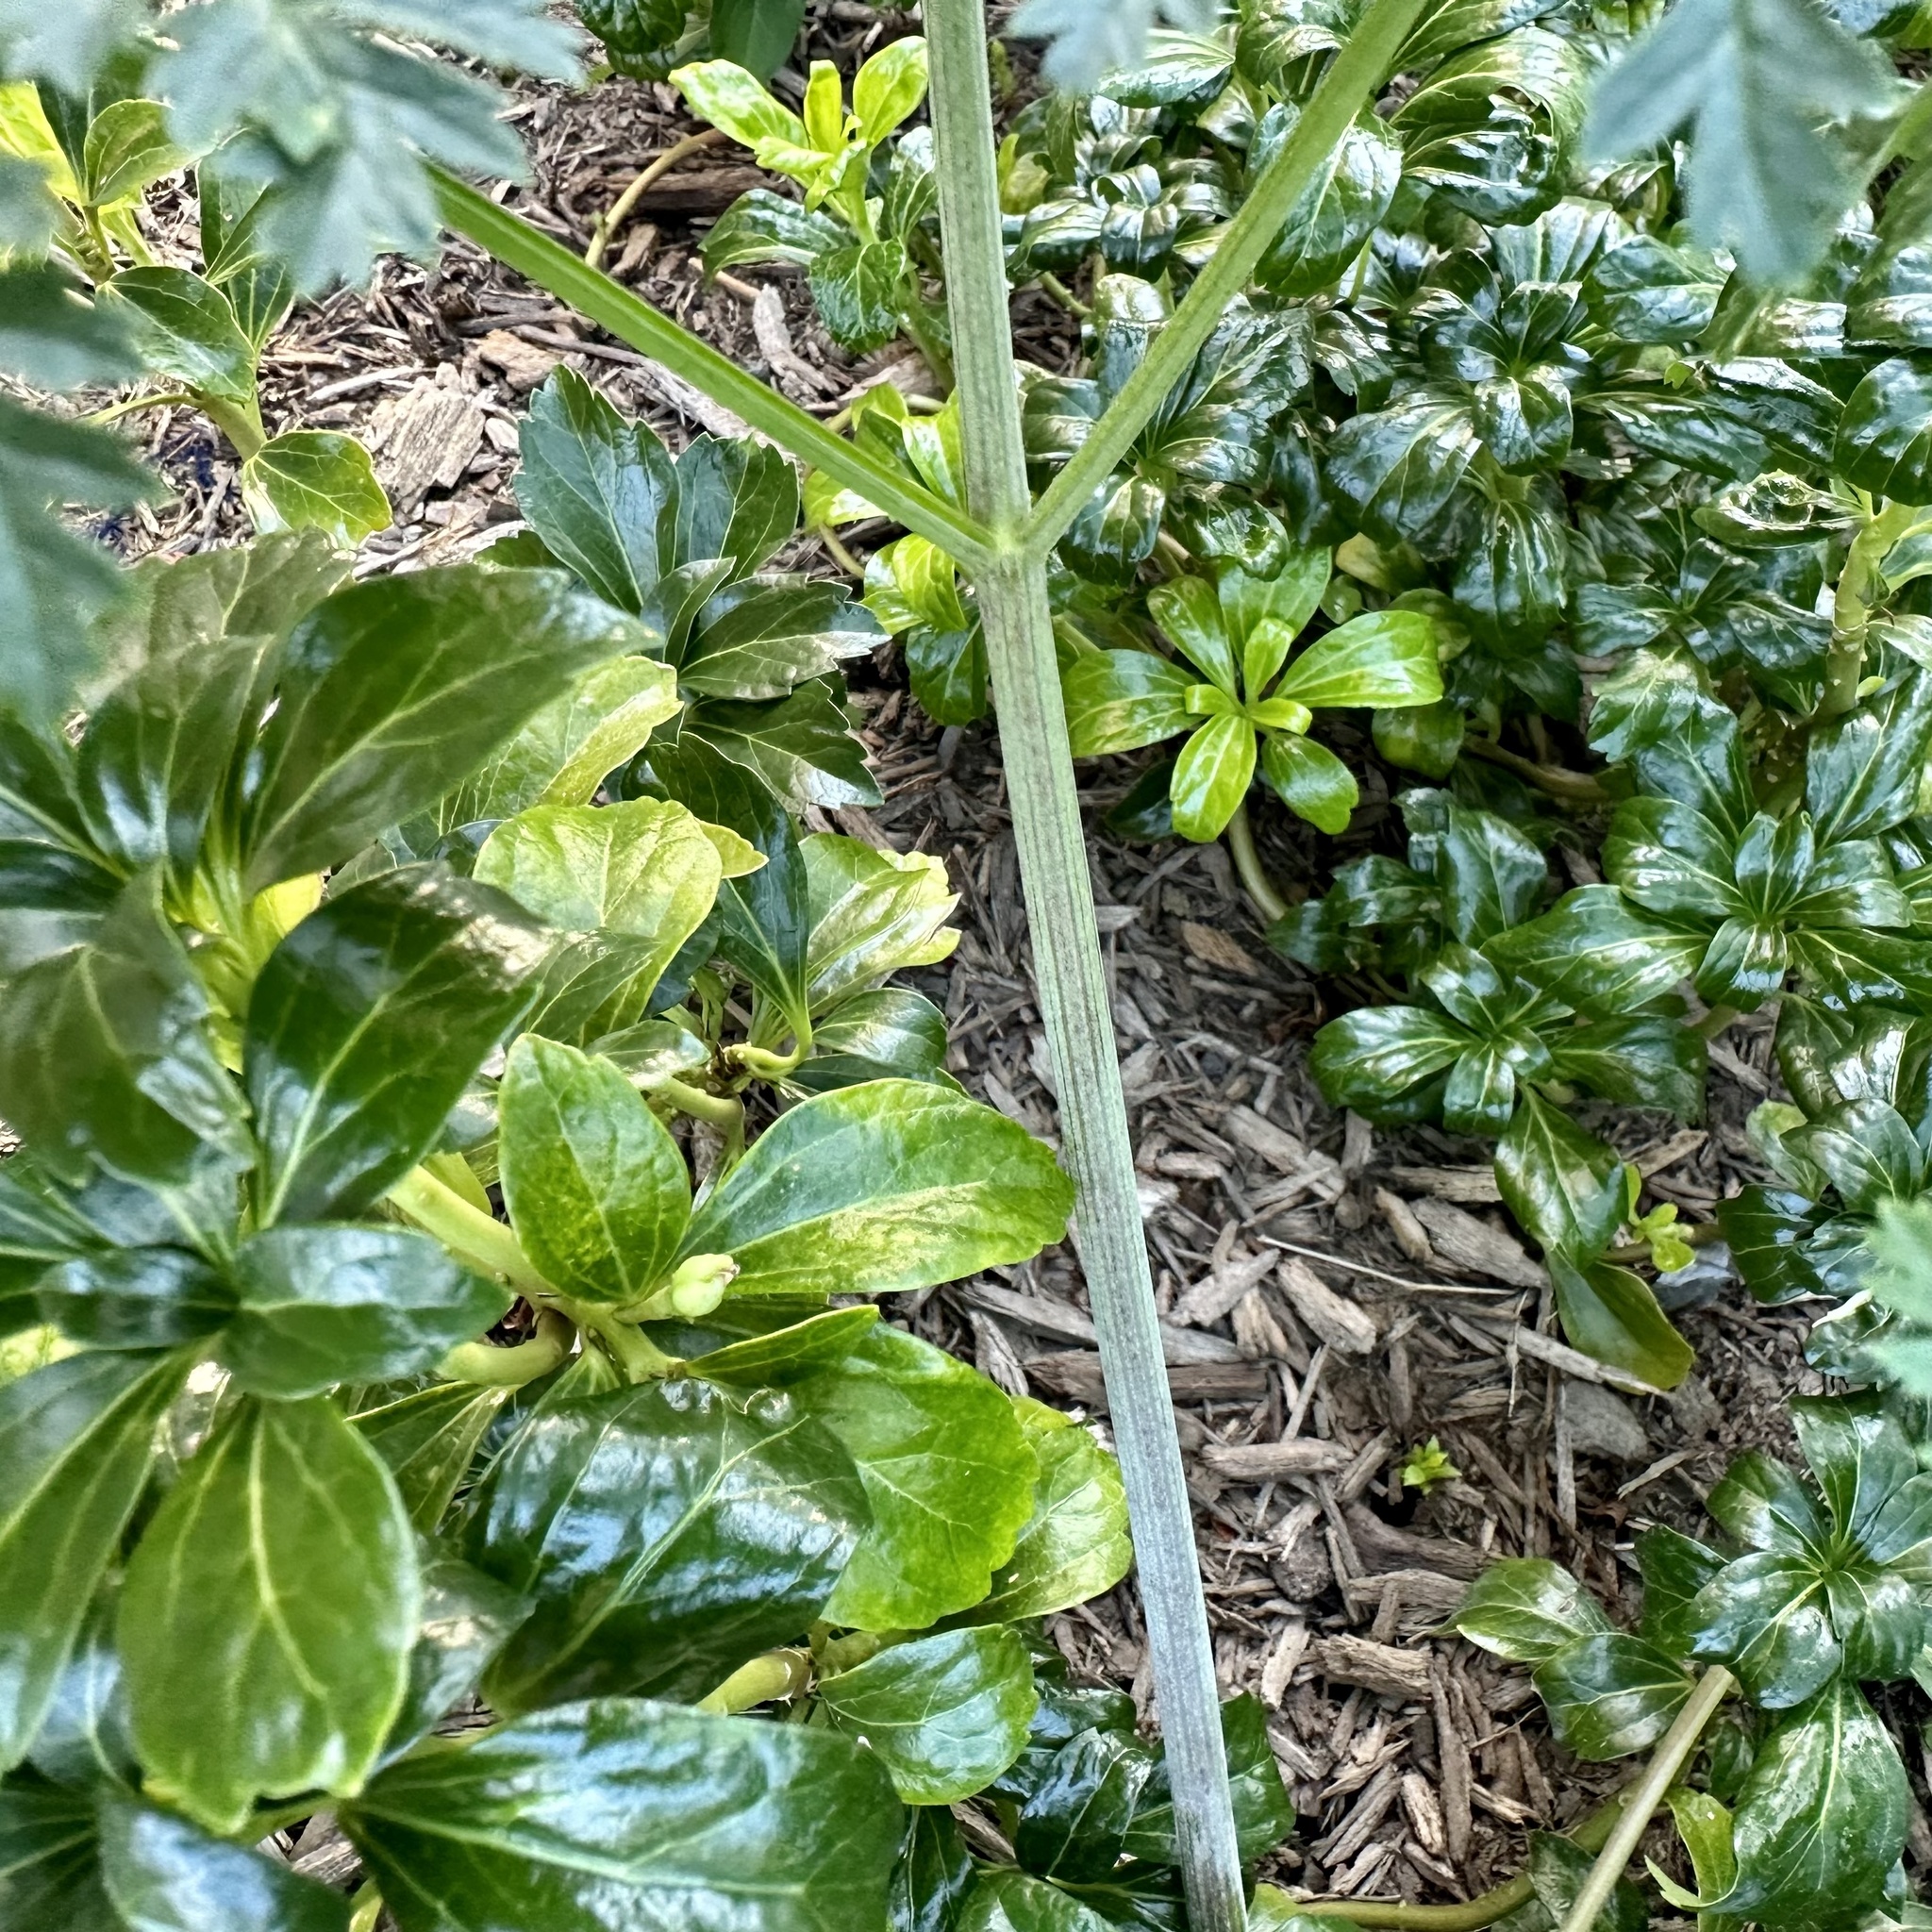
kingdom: Plantae
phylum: Tracheophyta
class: Magnoliopsida
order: Apiales
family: Apiaceae
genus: Conium
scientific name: Conium maculatum
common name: Hemlock
